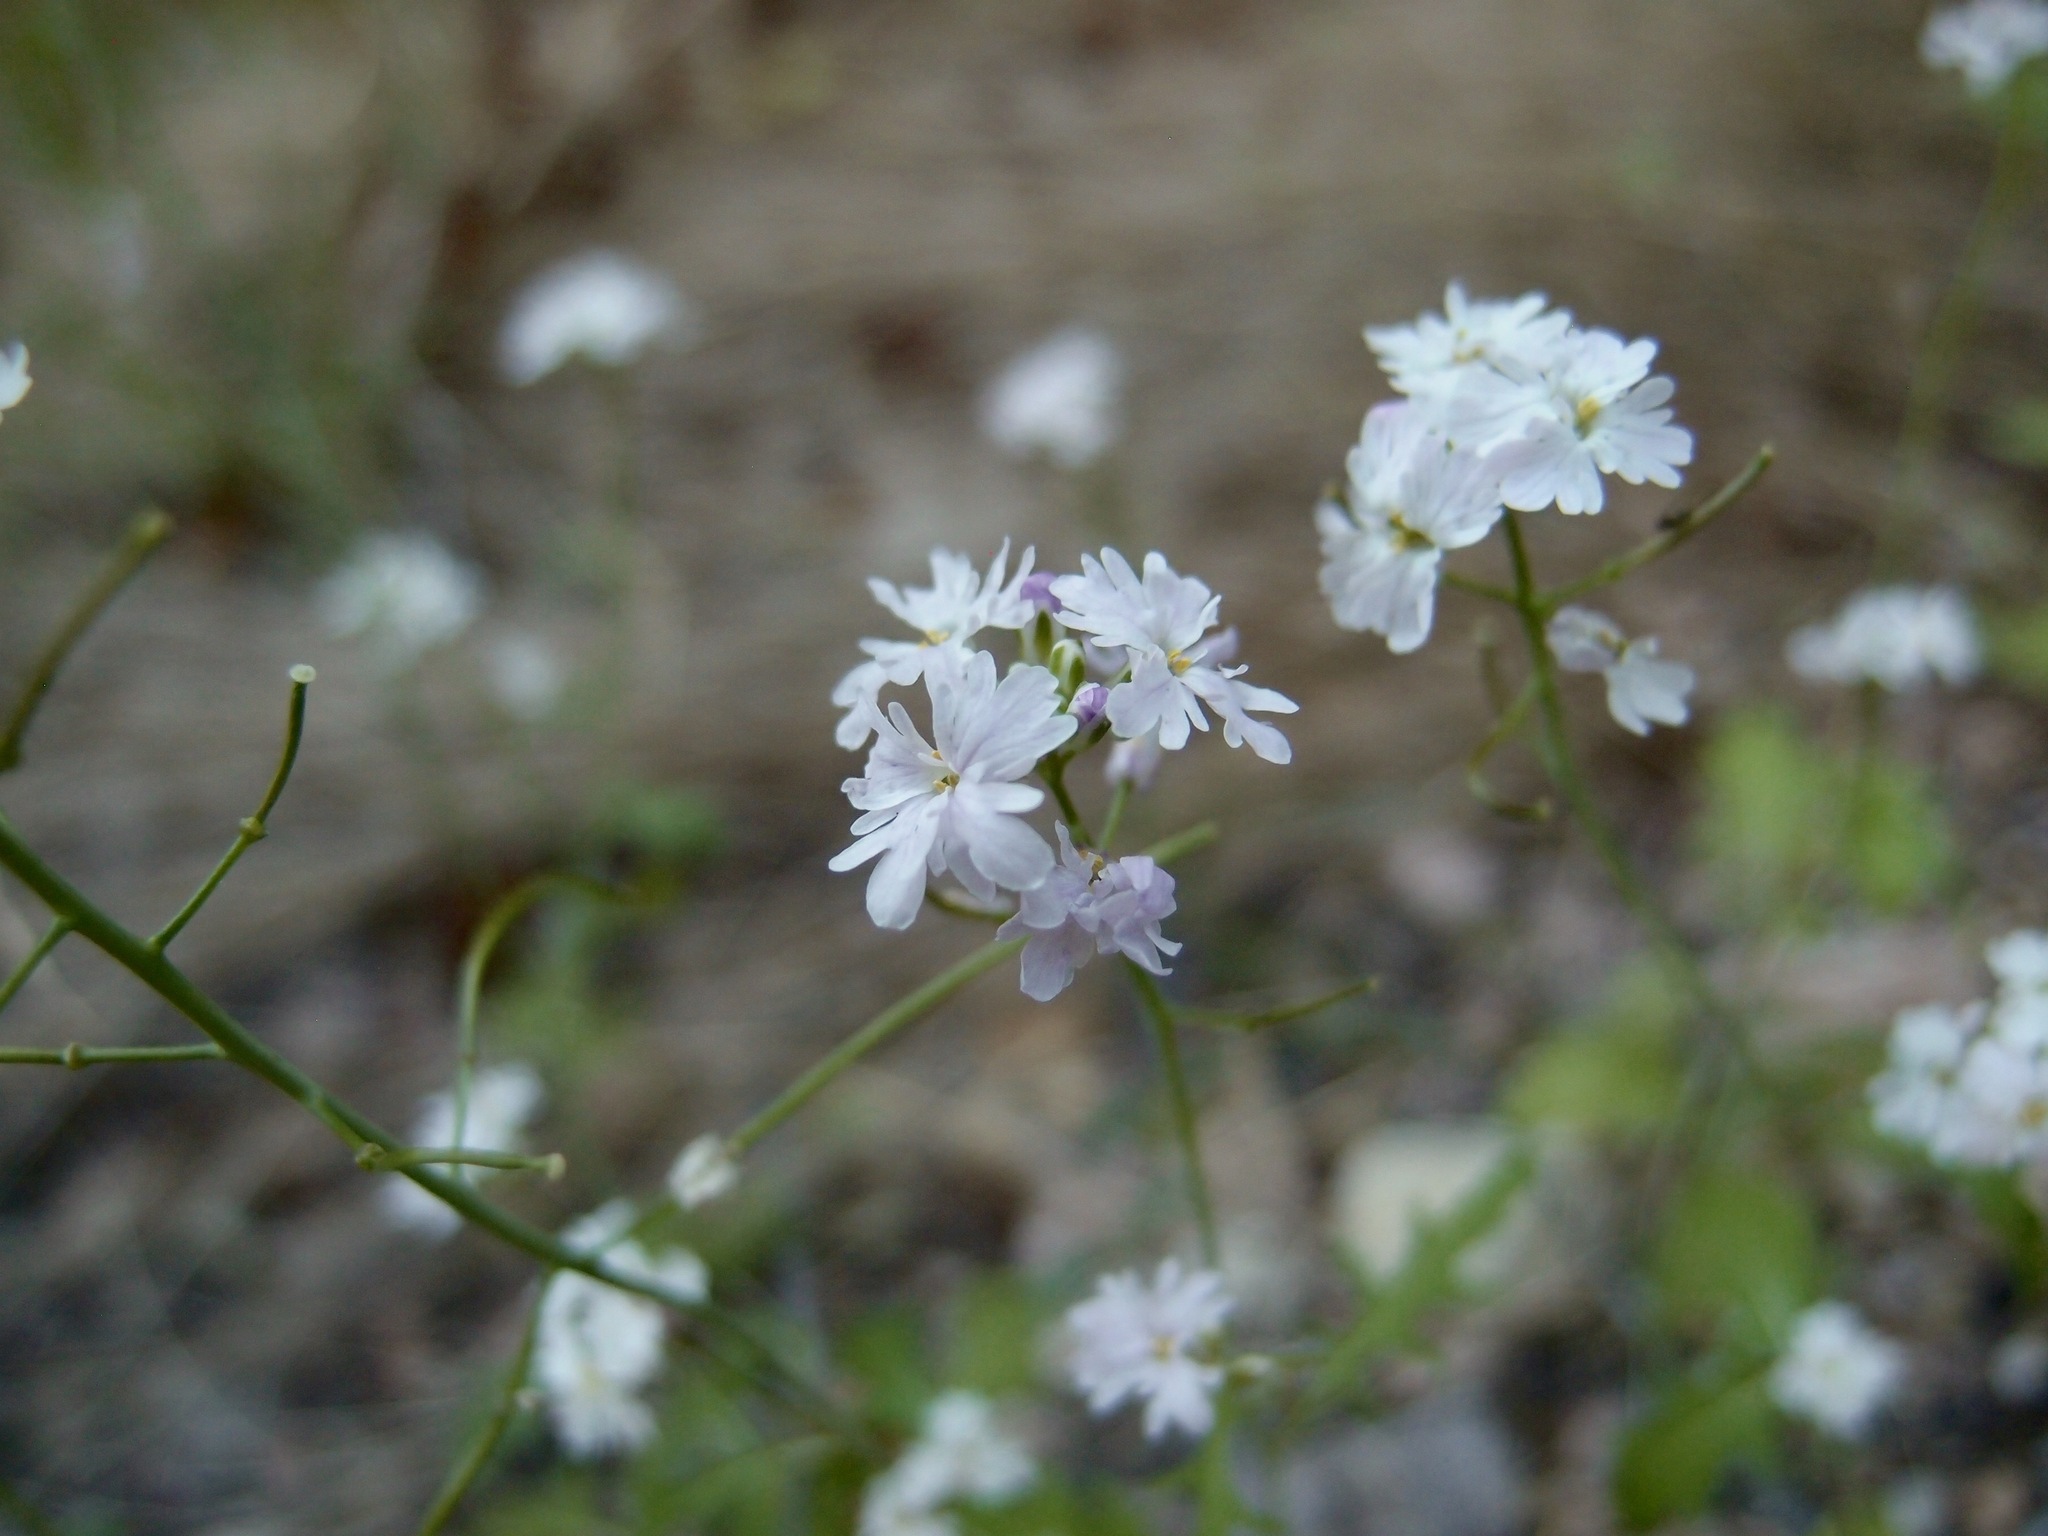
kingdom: Plantae
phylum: Tracheophyta
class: Magnoliopsida
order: Brassicales
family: Brassicaceae
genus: Dryopetalon
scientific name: Dryopetalon runcinatum
